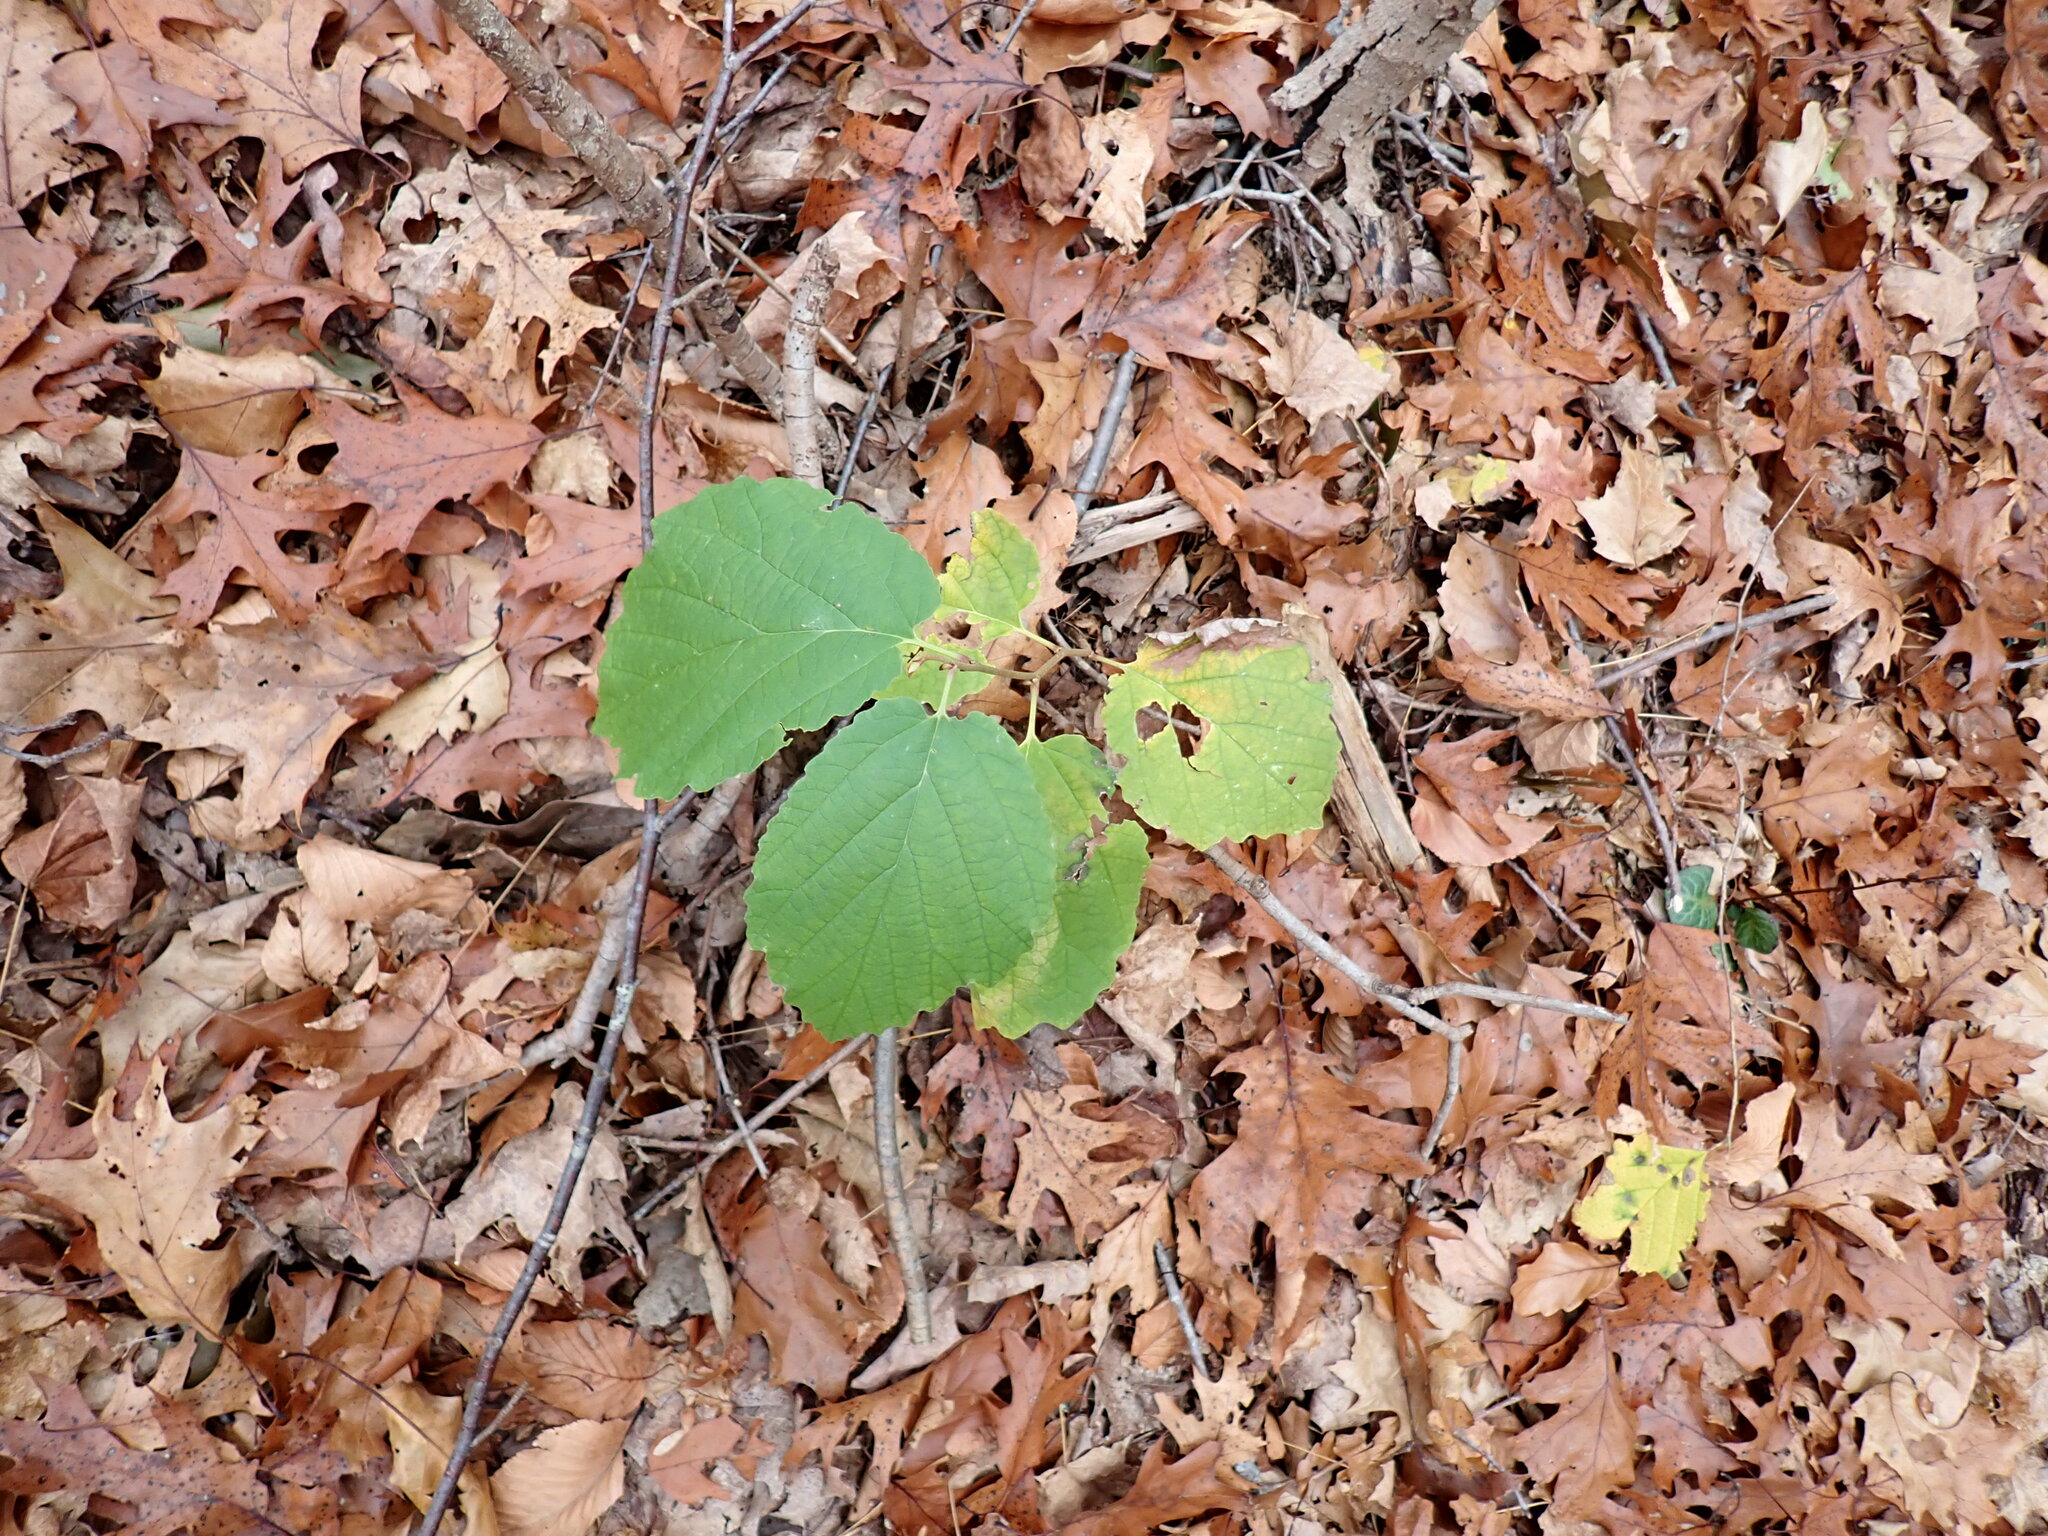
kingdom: Plantae
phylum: Tracheophyta
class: Magnoliopsida
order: Saxifragales
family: Hamamelidaceae
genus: Hamamelis
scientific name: Hamamelis virginiana
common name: Witch-hazel
